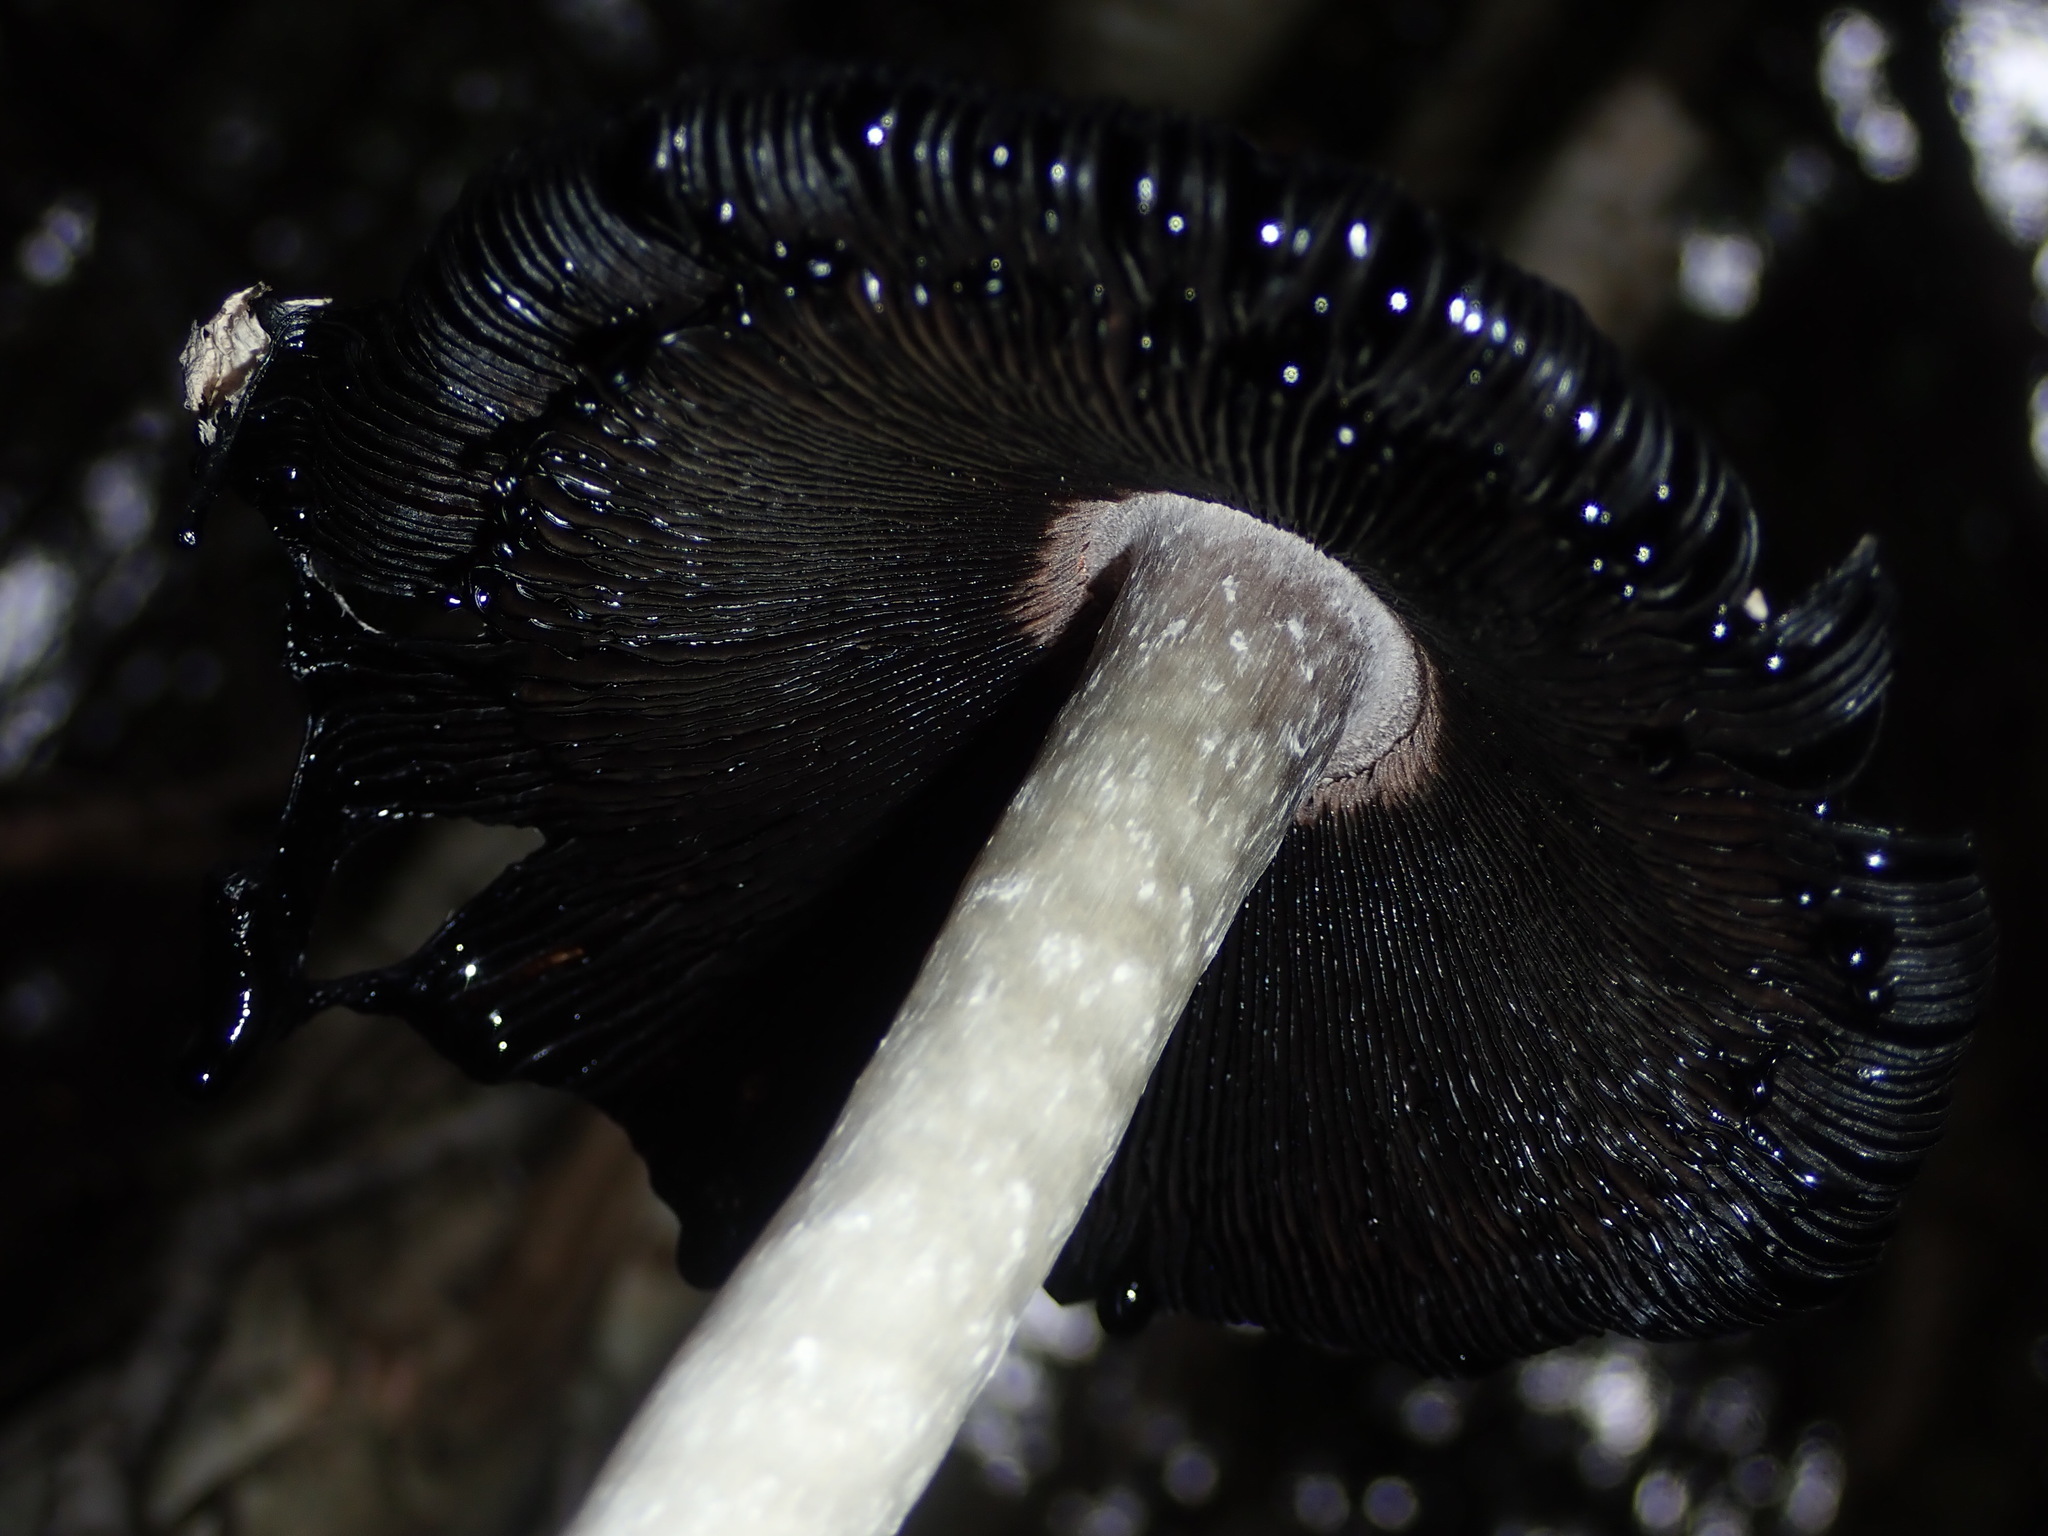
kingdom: Fungi
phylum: Basidiomycota
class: Agaricomycetes
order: Agaricales
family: Agaricaceae
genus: Coprinus
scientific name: Coprinus comatus
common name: Lawyer's wig
